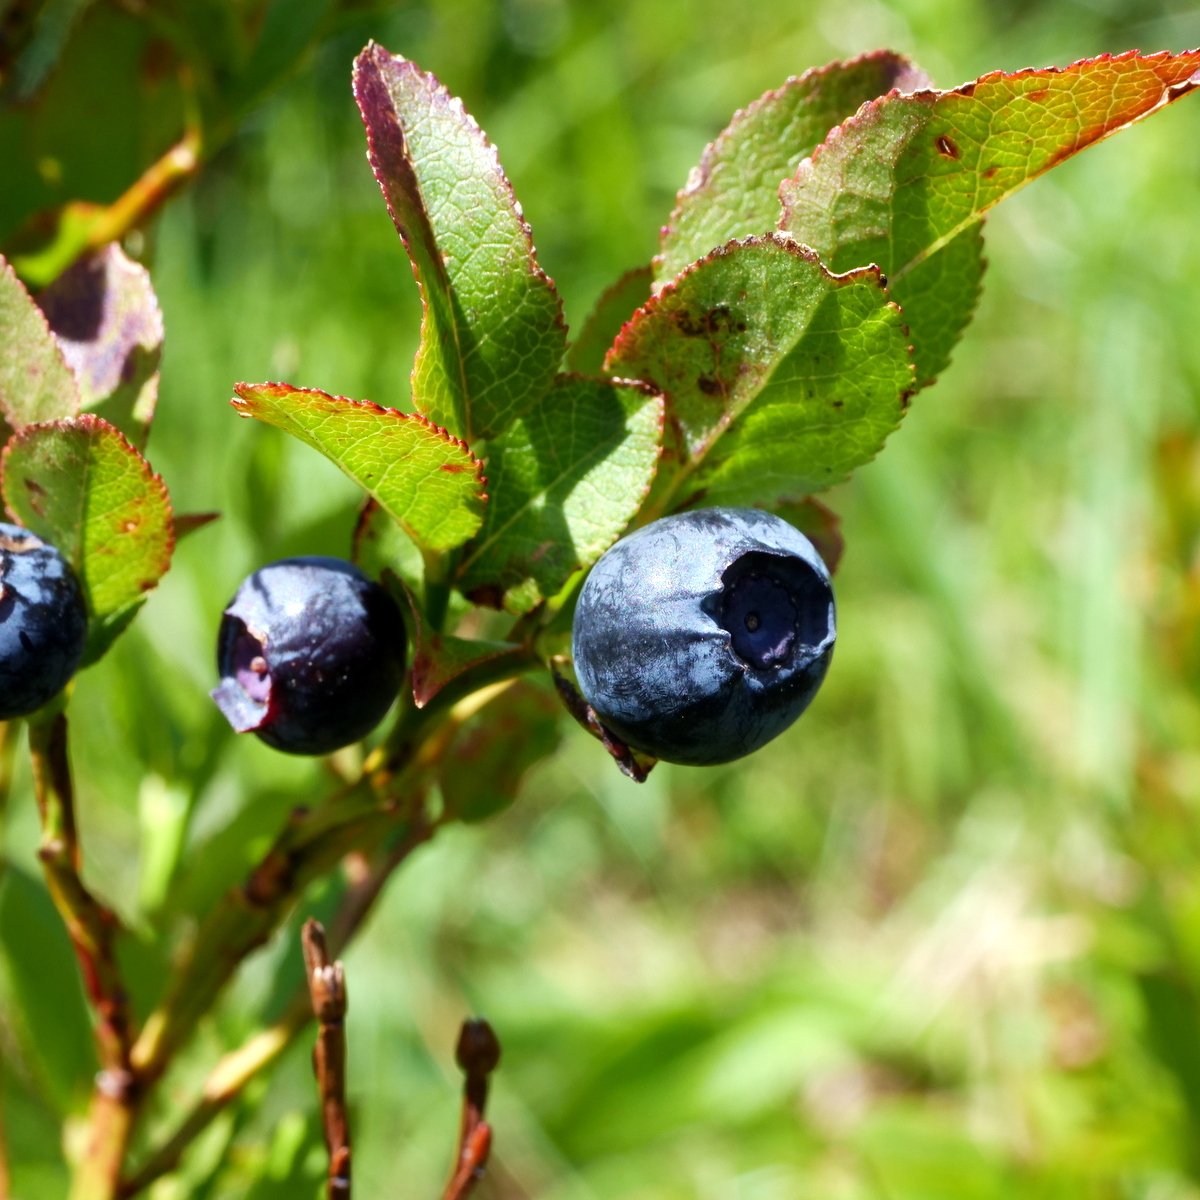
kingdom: Plantae
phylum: Tracheophyta
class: Magnoliopsida
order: Ericales
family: Ericaceae
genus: Vaccinium
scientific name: Vaccinium myrtillus
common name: Bilberry
